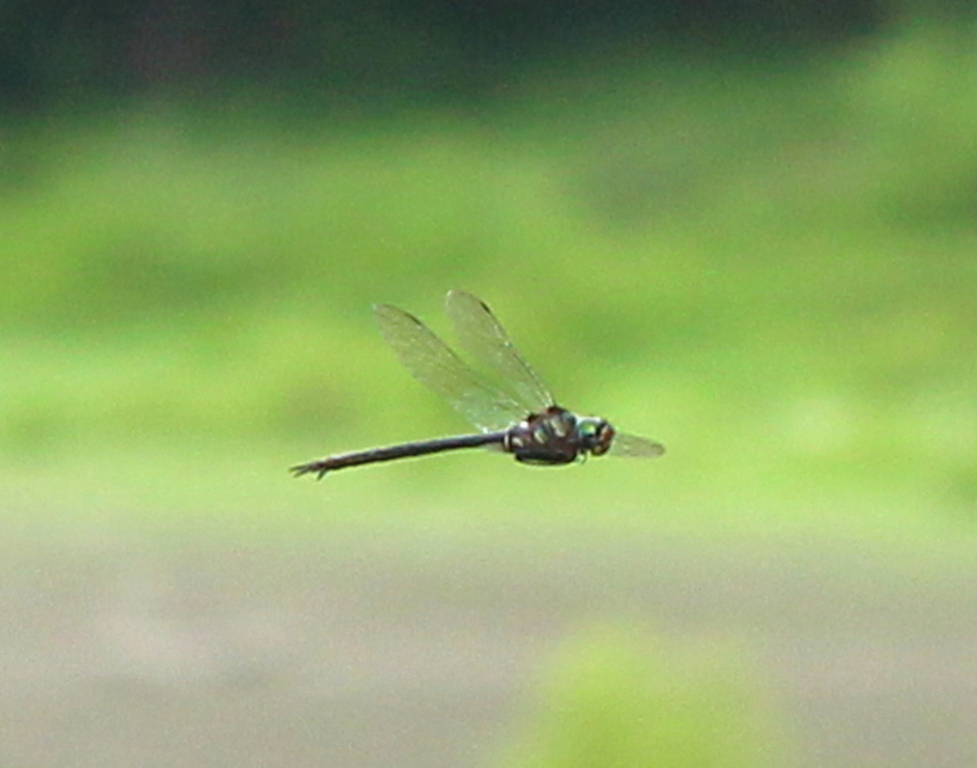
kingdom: Animalia
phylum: Arthropoda
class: Insecta
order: Odonata
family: Corduliidae
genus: Somatochlora
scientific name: Somatochlora tenebrosa
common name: Clamp-tipped emerald
